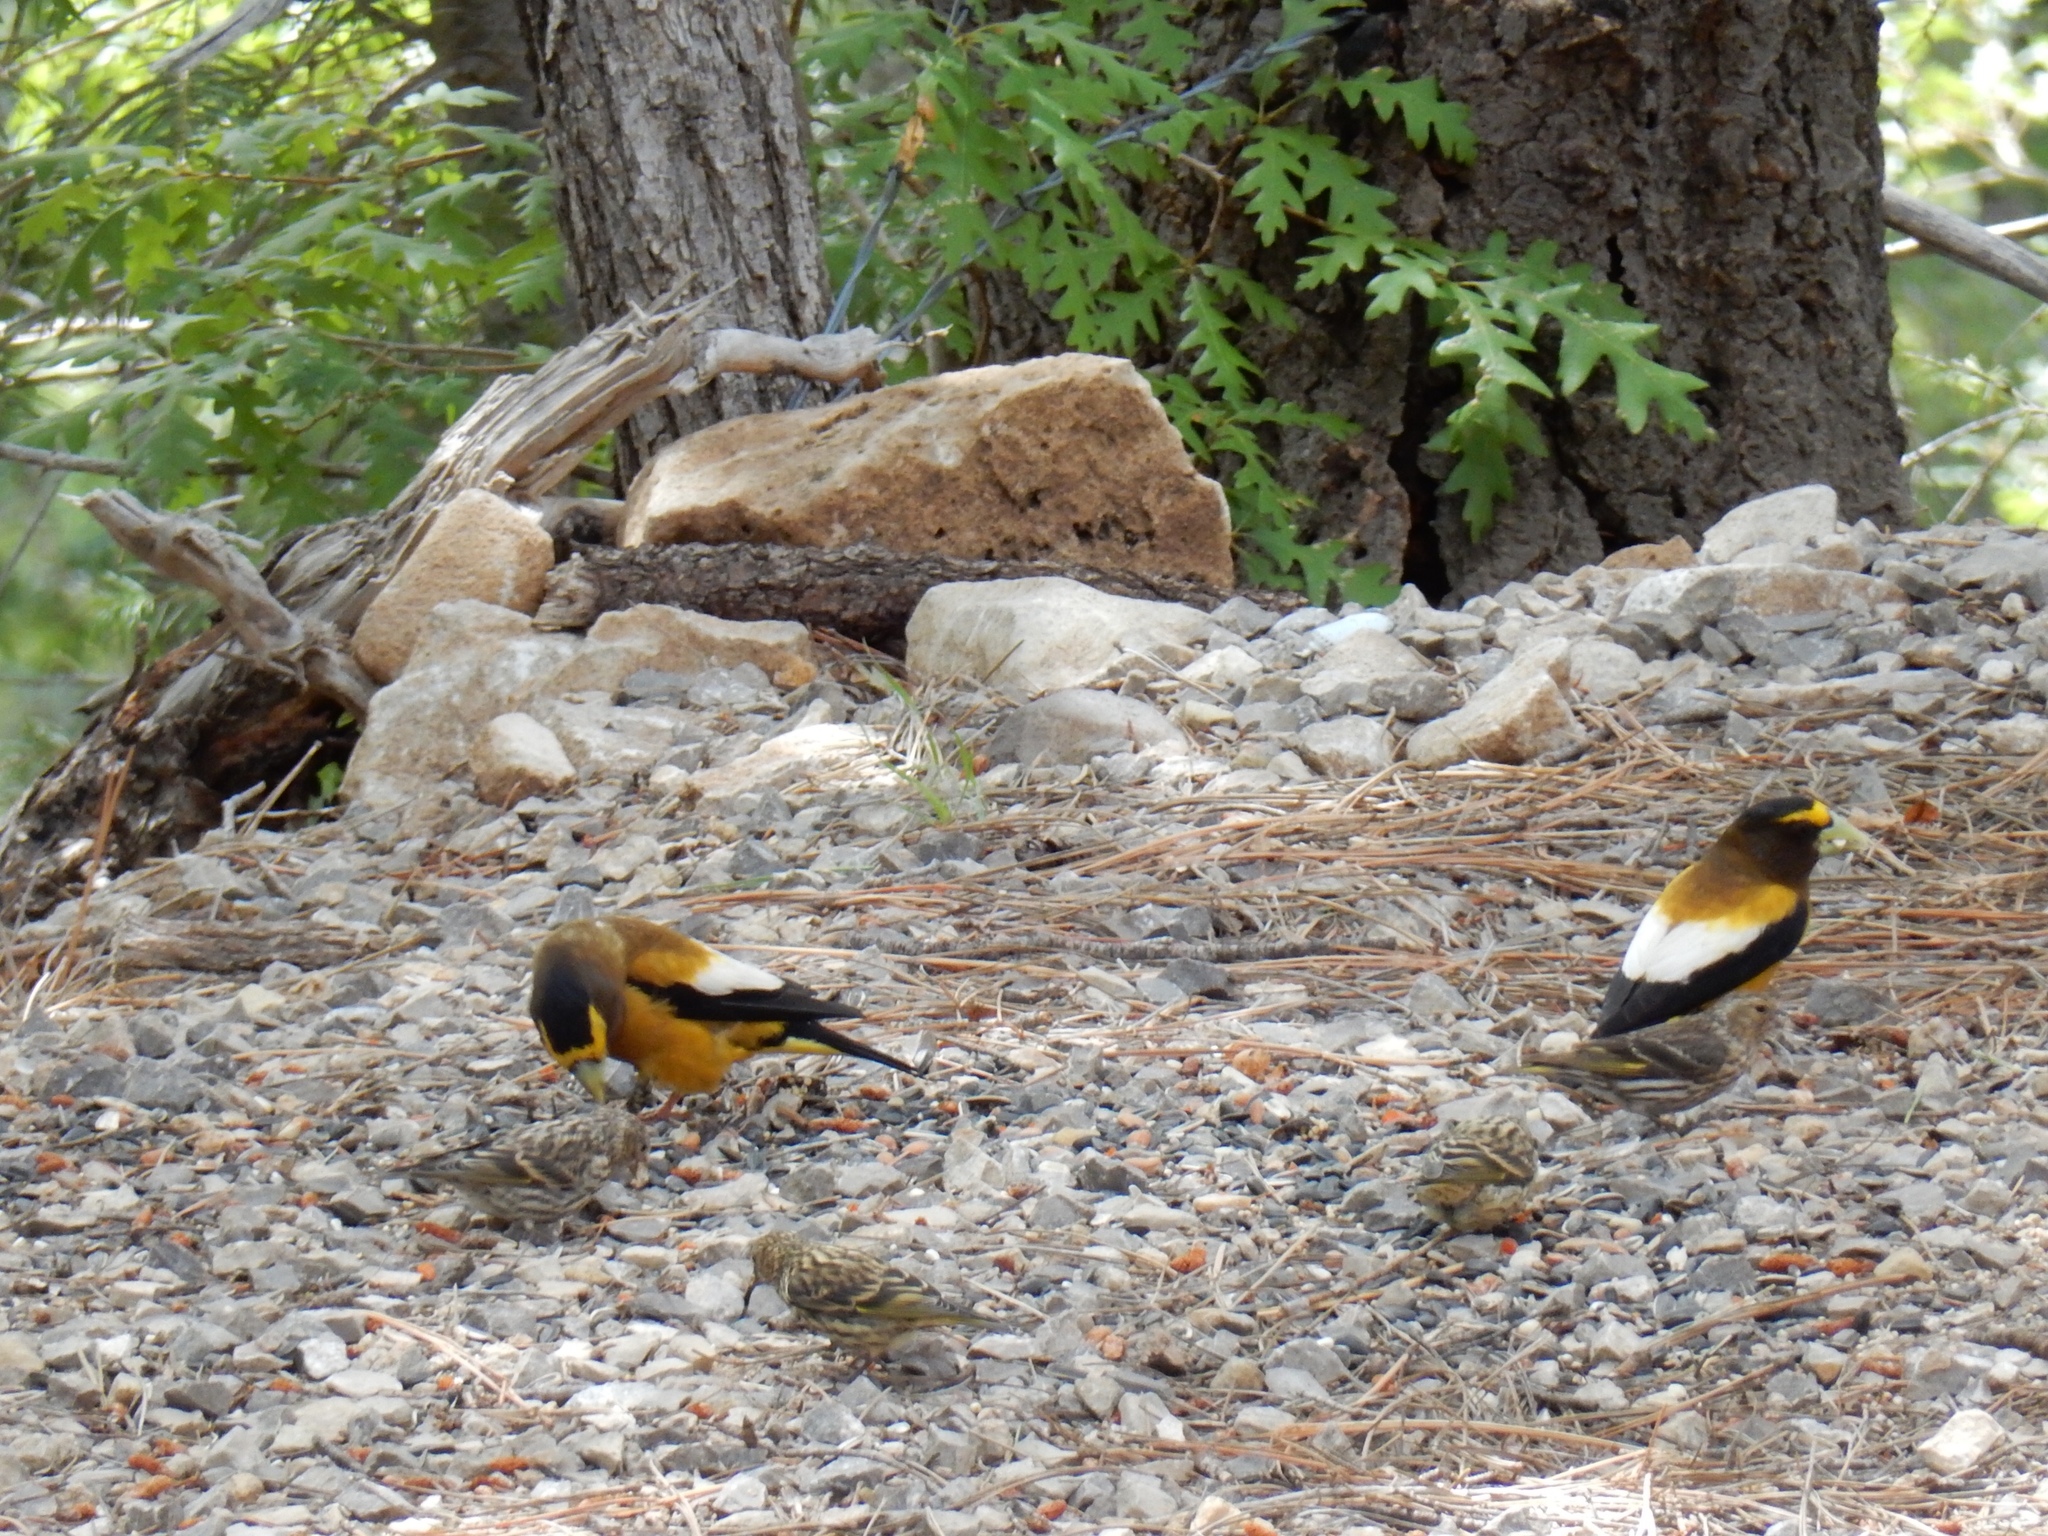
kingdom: Animalia
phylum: Chordata
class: Aves
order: Passeriformes
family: Fringillidae
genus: Hesperiphona
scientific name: Hesperiphona vespertina
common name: Evening grosbeak
